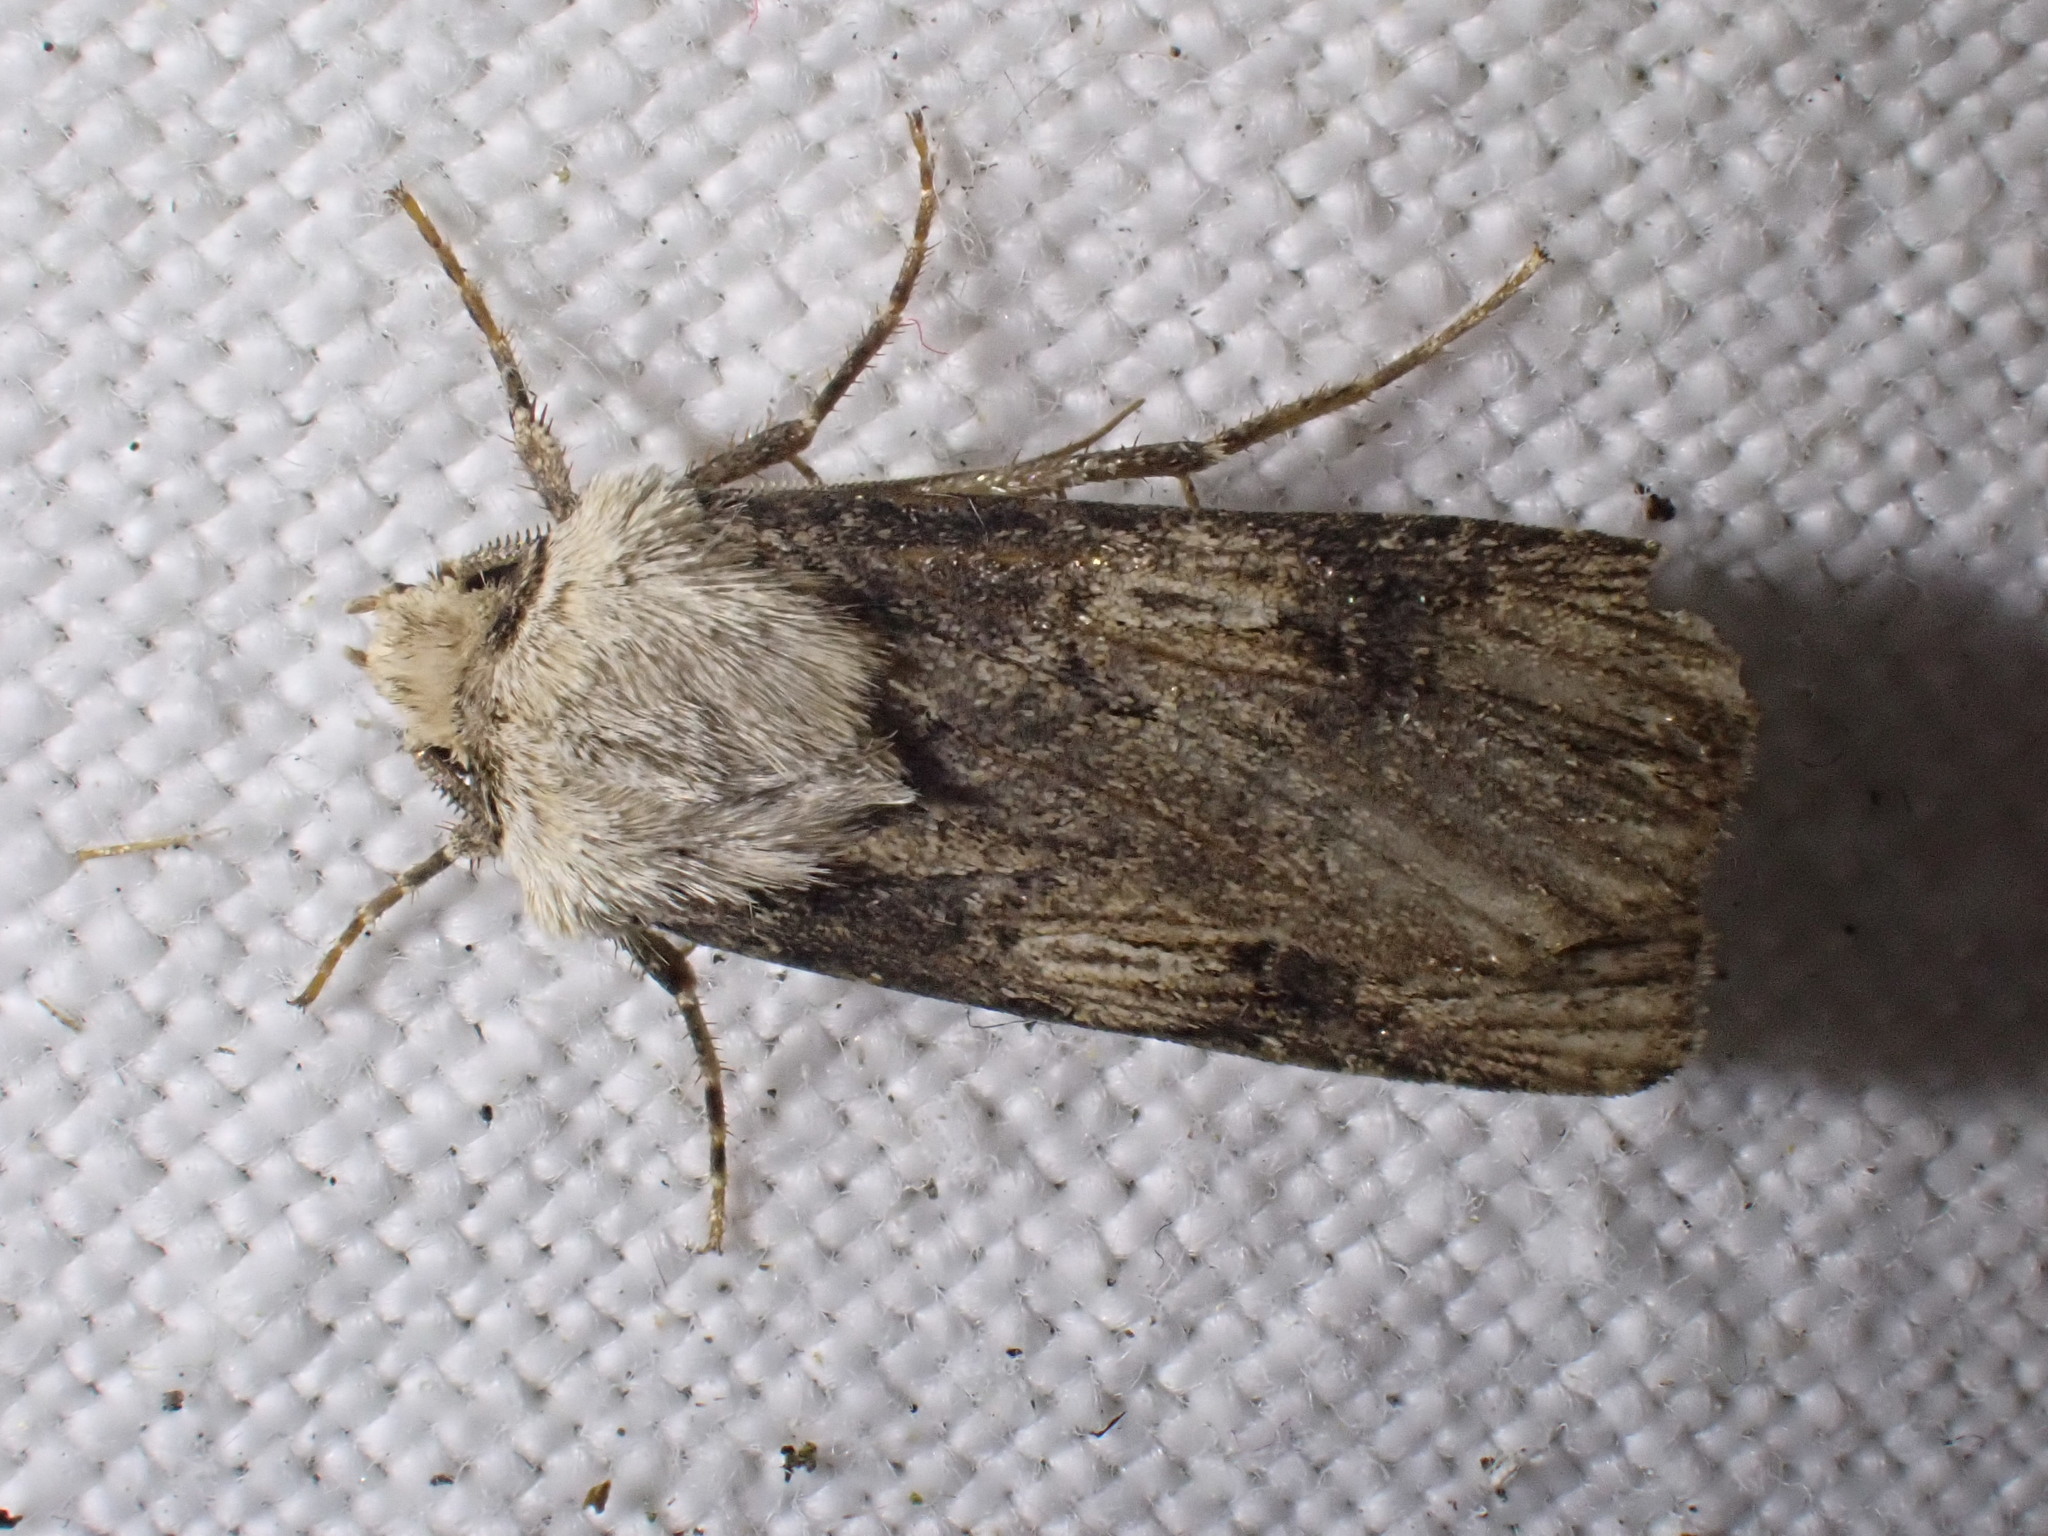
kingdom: Animalia
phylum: Arthropoda
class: Insecta
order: Lepidoptera
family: Noctuidae
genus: Agrotis
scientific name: Agrotis puta
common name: Shuttle-shaped dart
